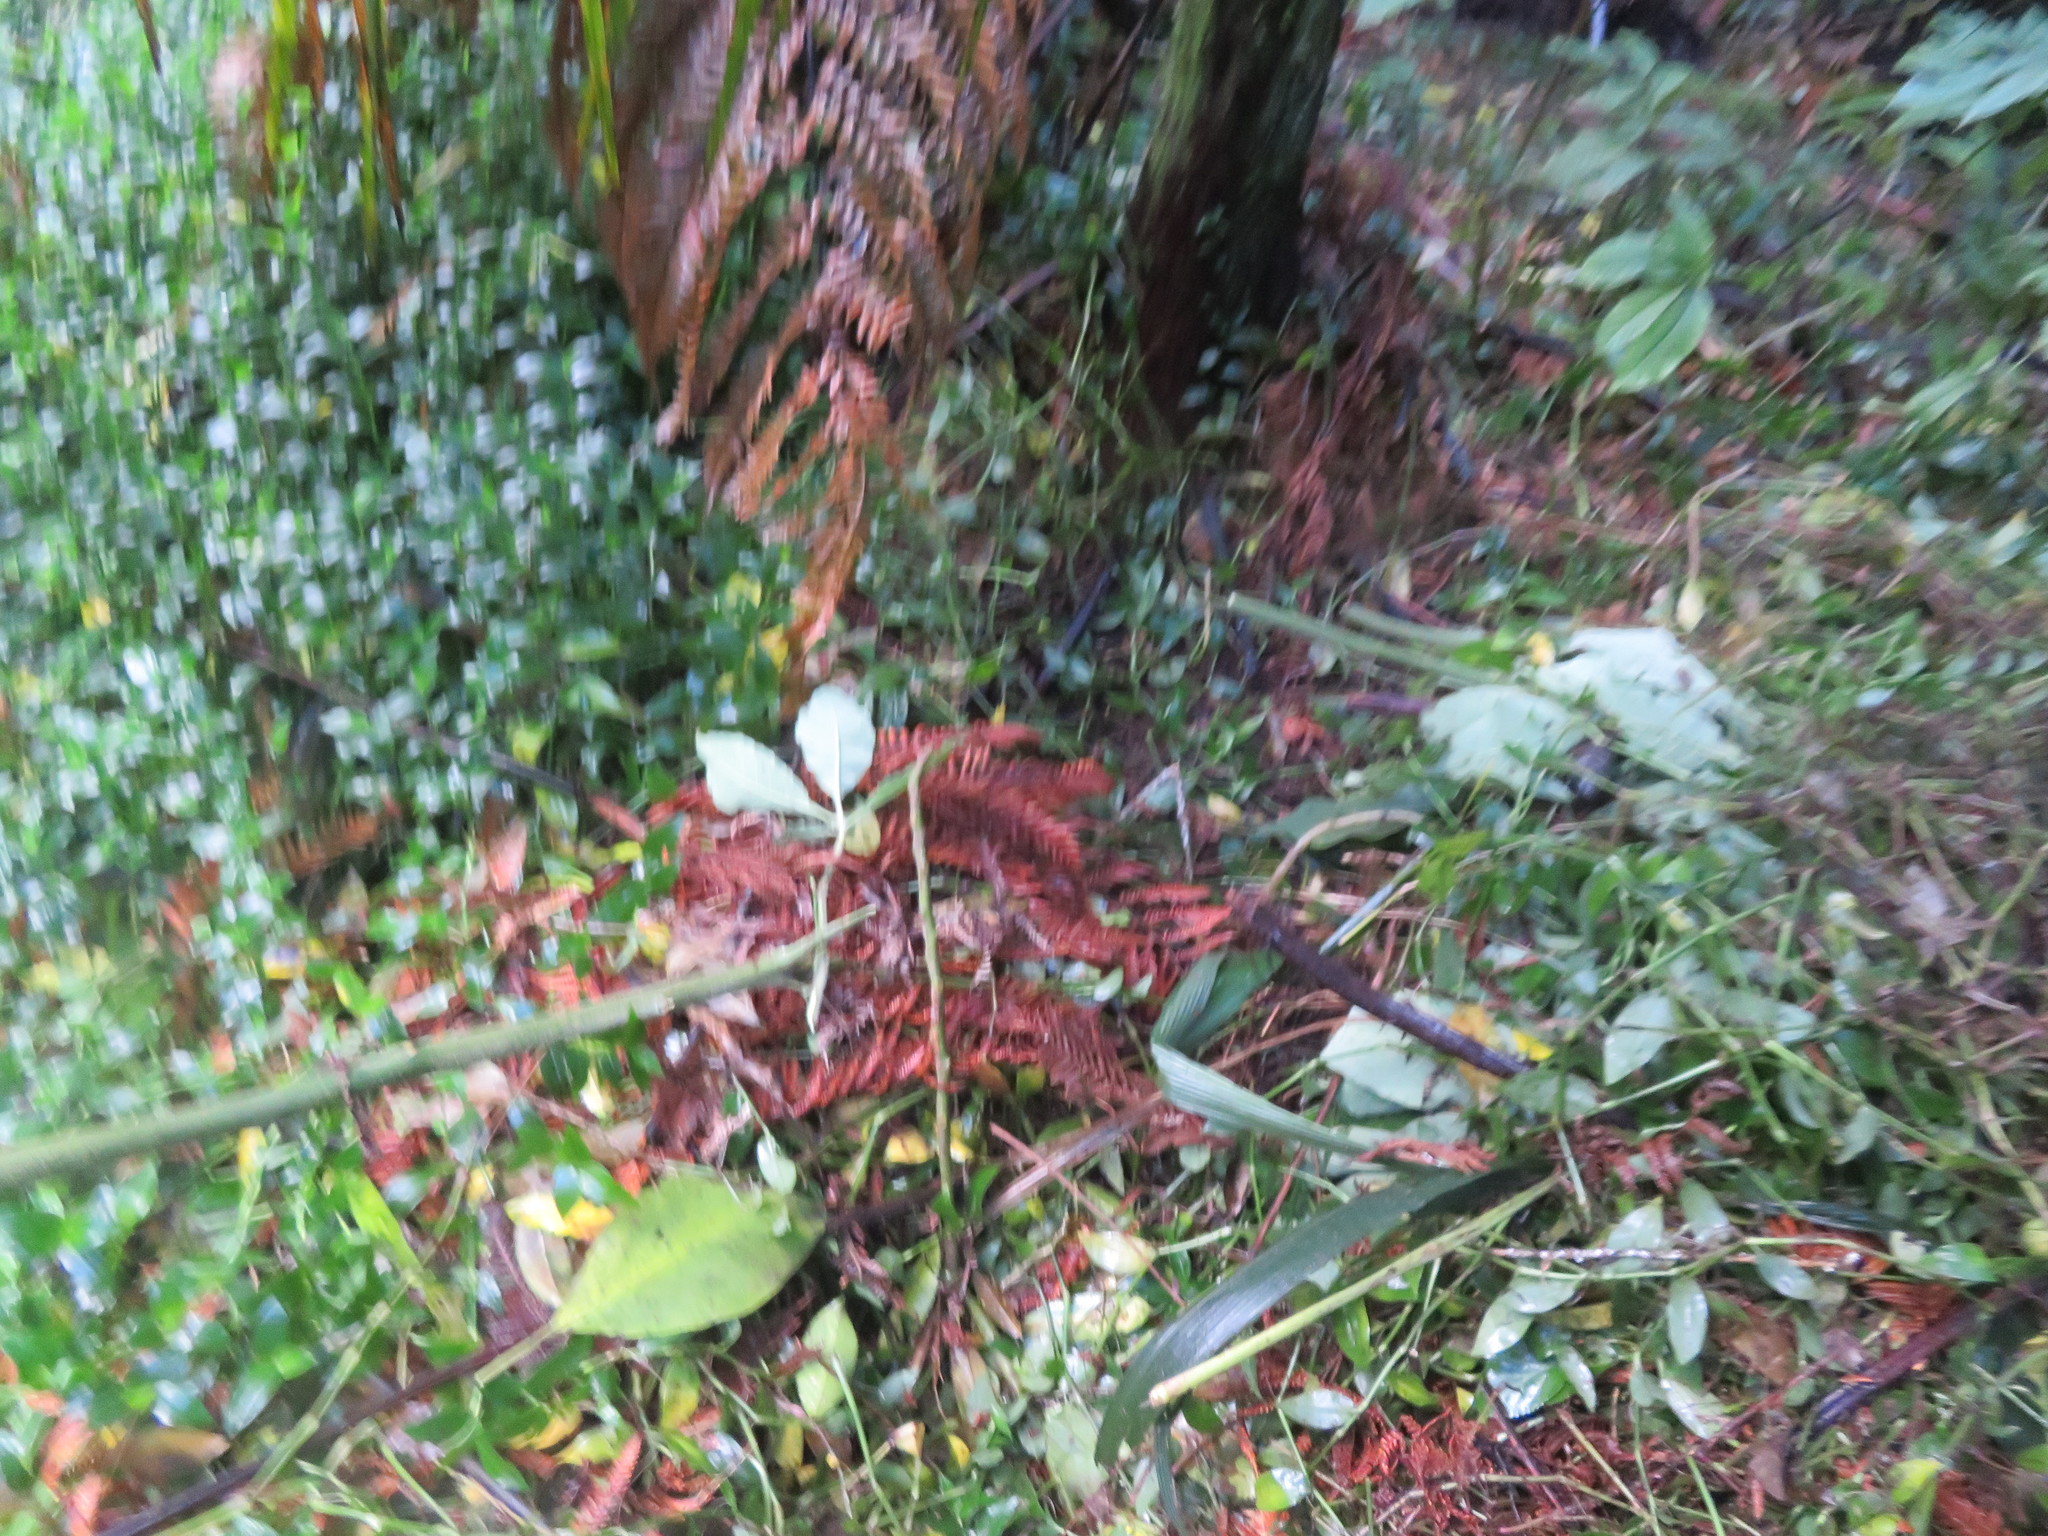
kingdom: Plantae
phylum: Tracheophyta
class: Liliopsida
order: Poales
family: Poaceae
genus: Setaria
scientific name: Setaria palmifolia
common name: Broadleaved bristlegrass
